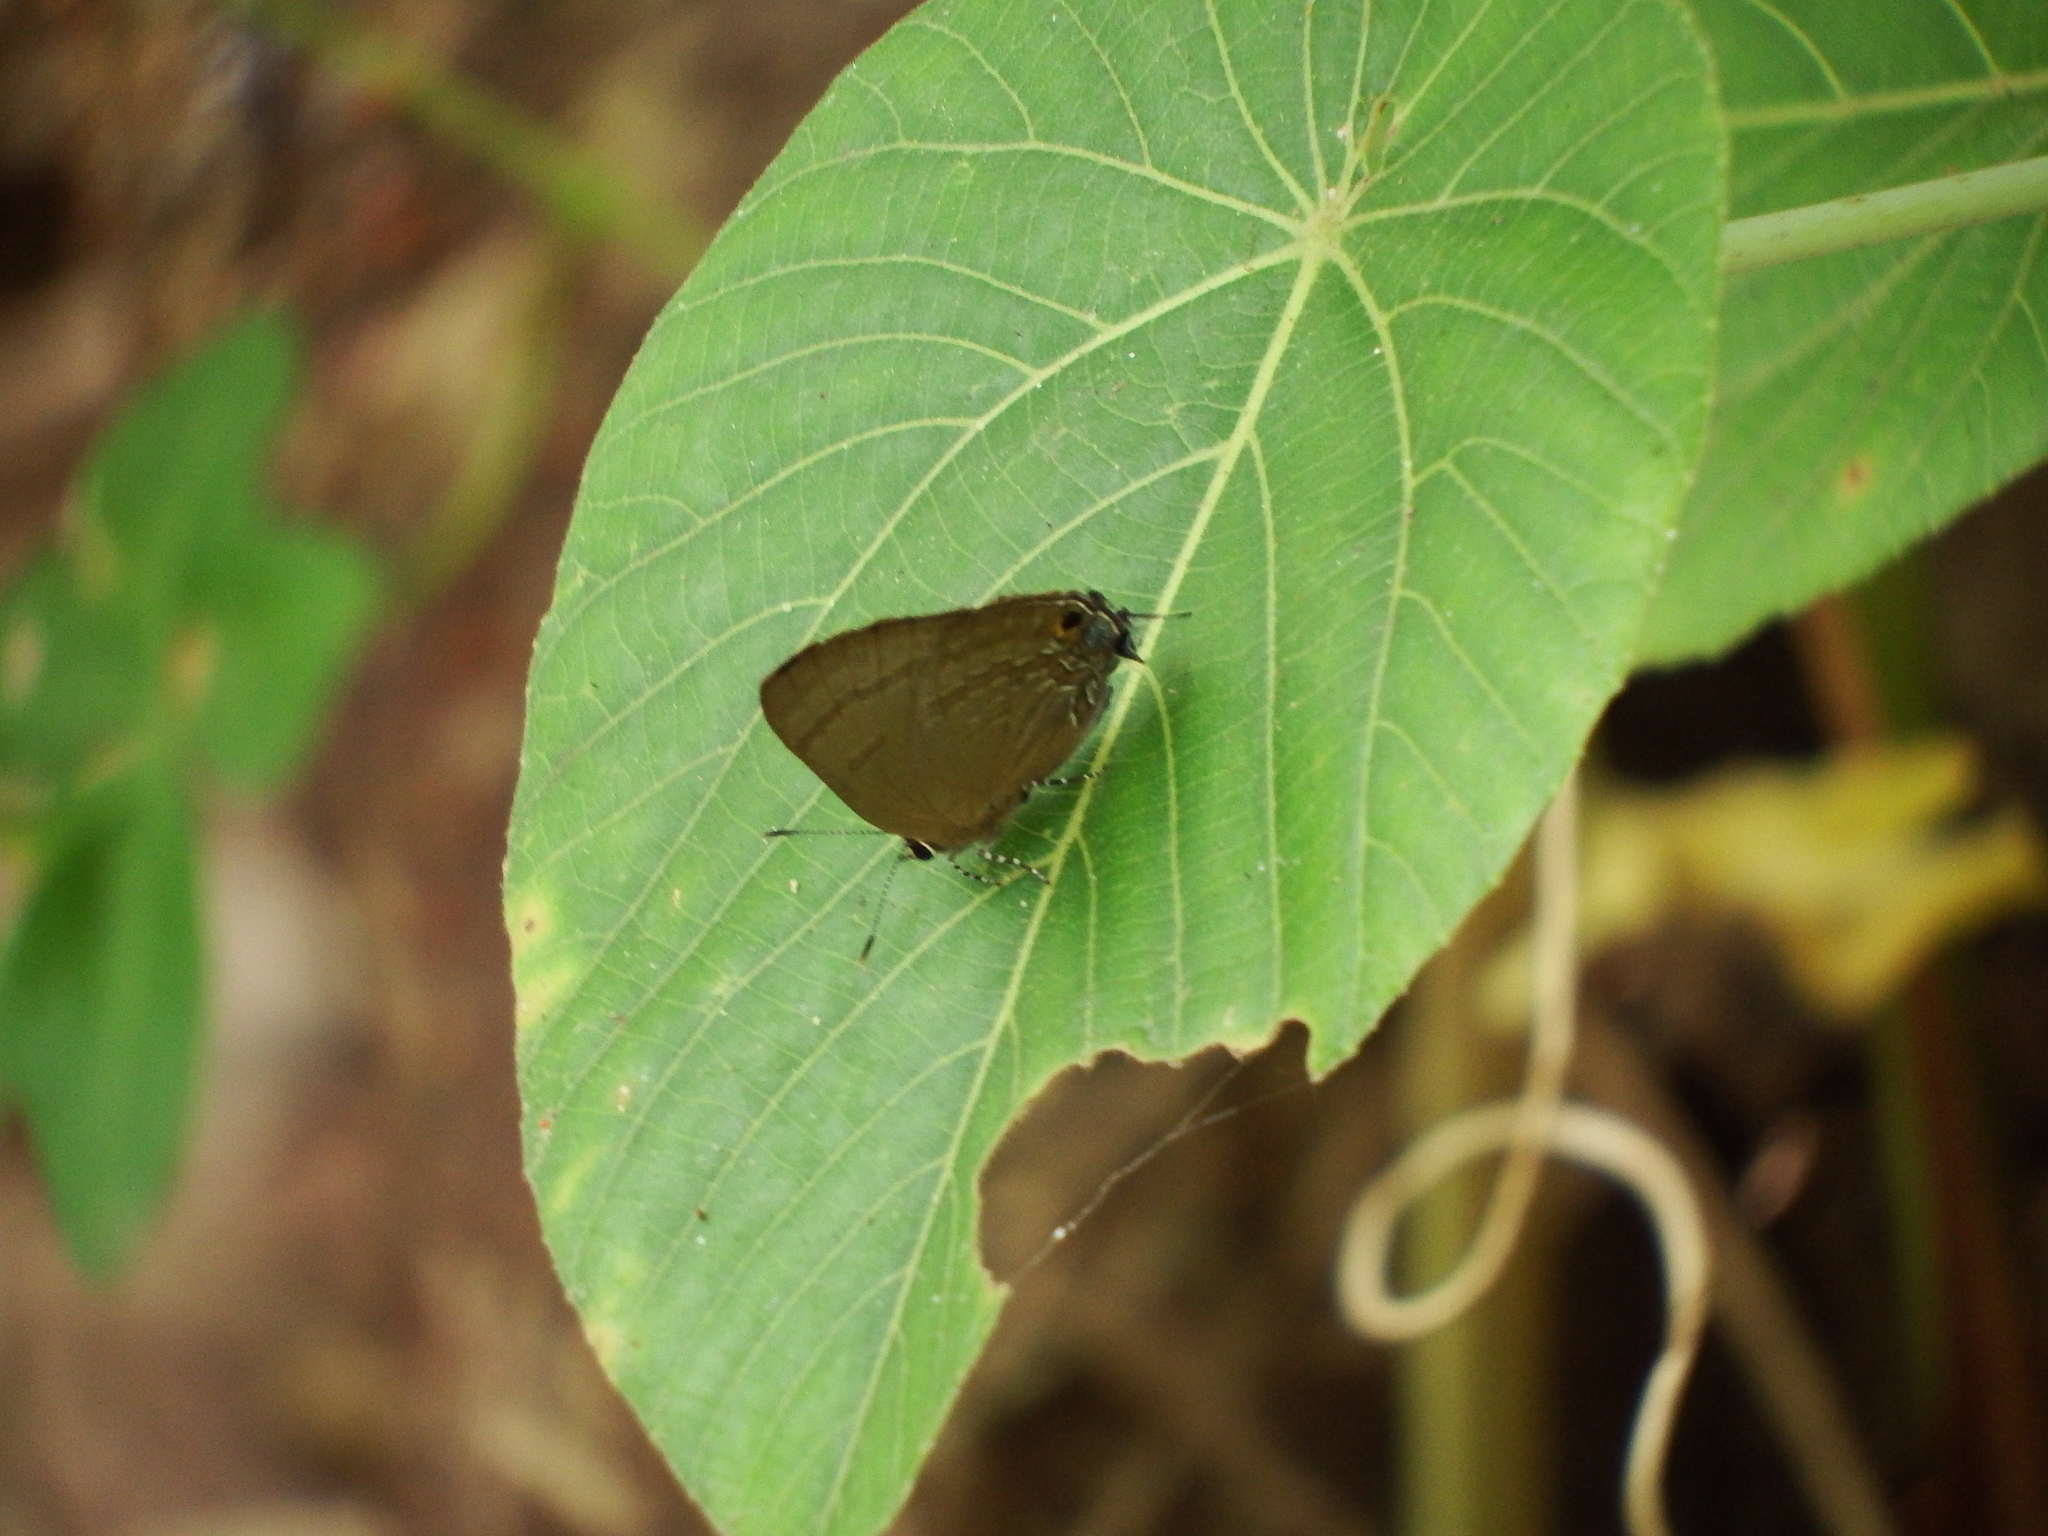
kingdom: Animalia
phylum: Arthropoda
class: Insecta
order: Lepidoptera
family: Lycaenidae
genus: Rapala
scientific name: Rapala varuna
